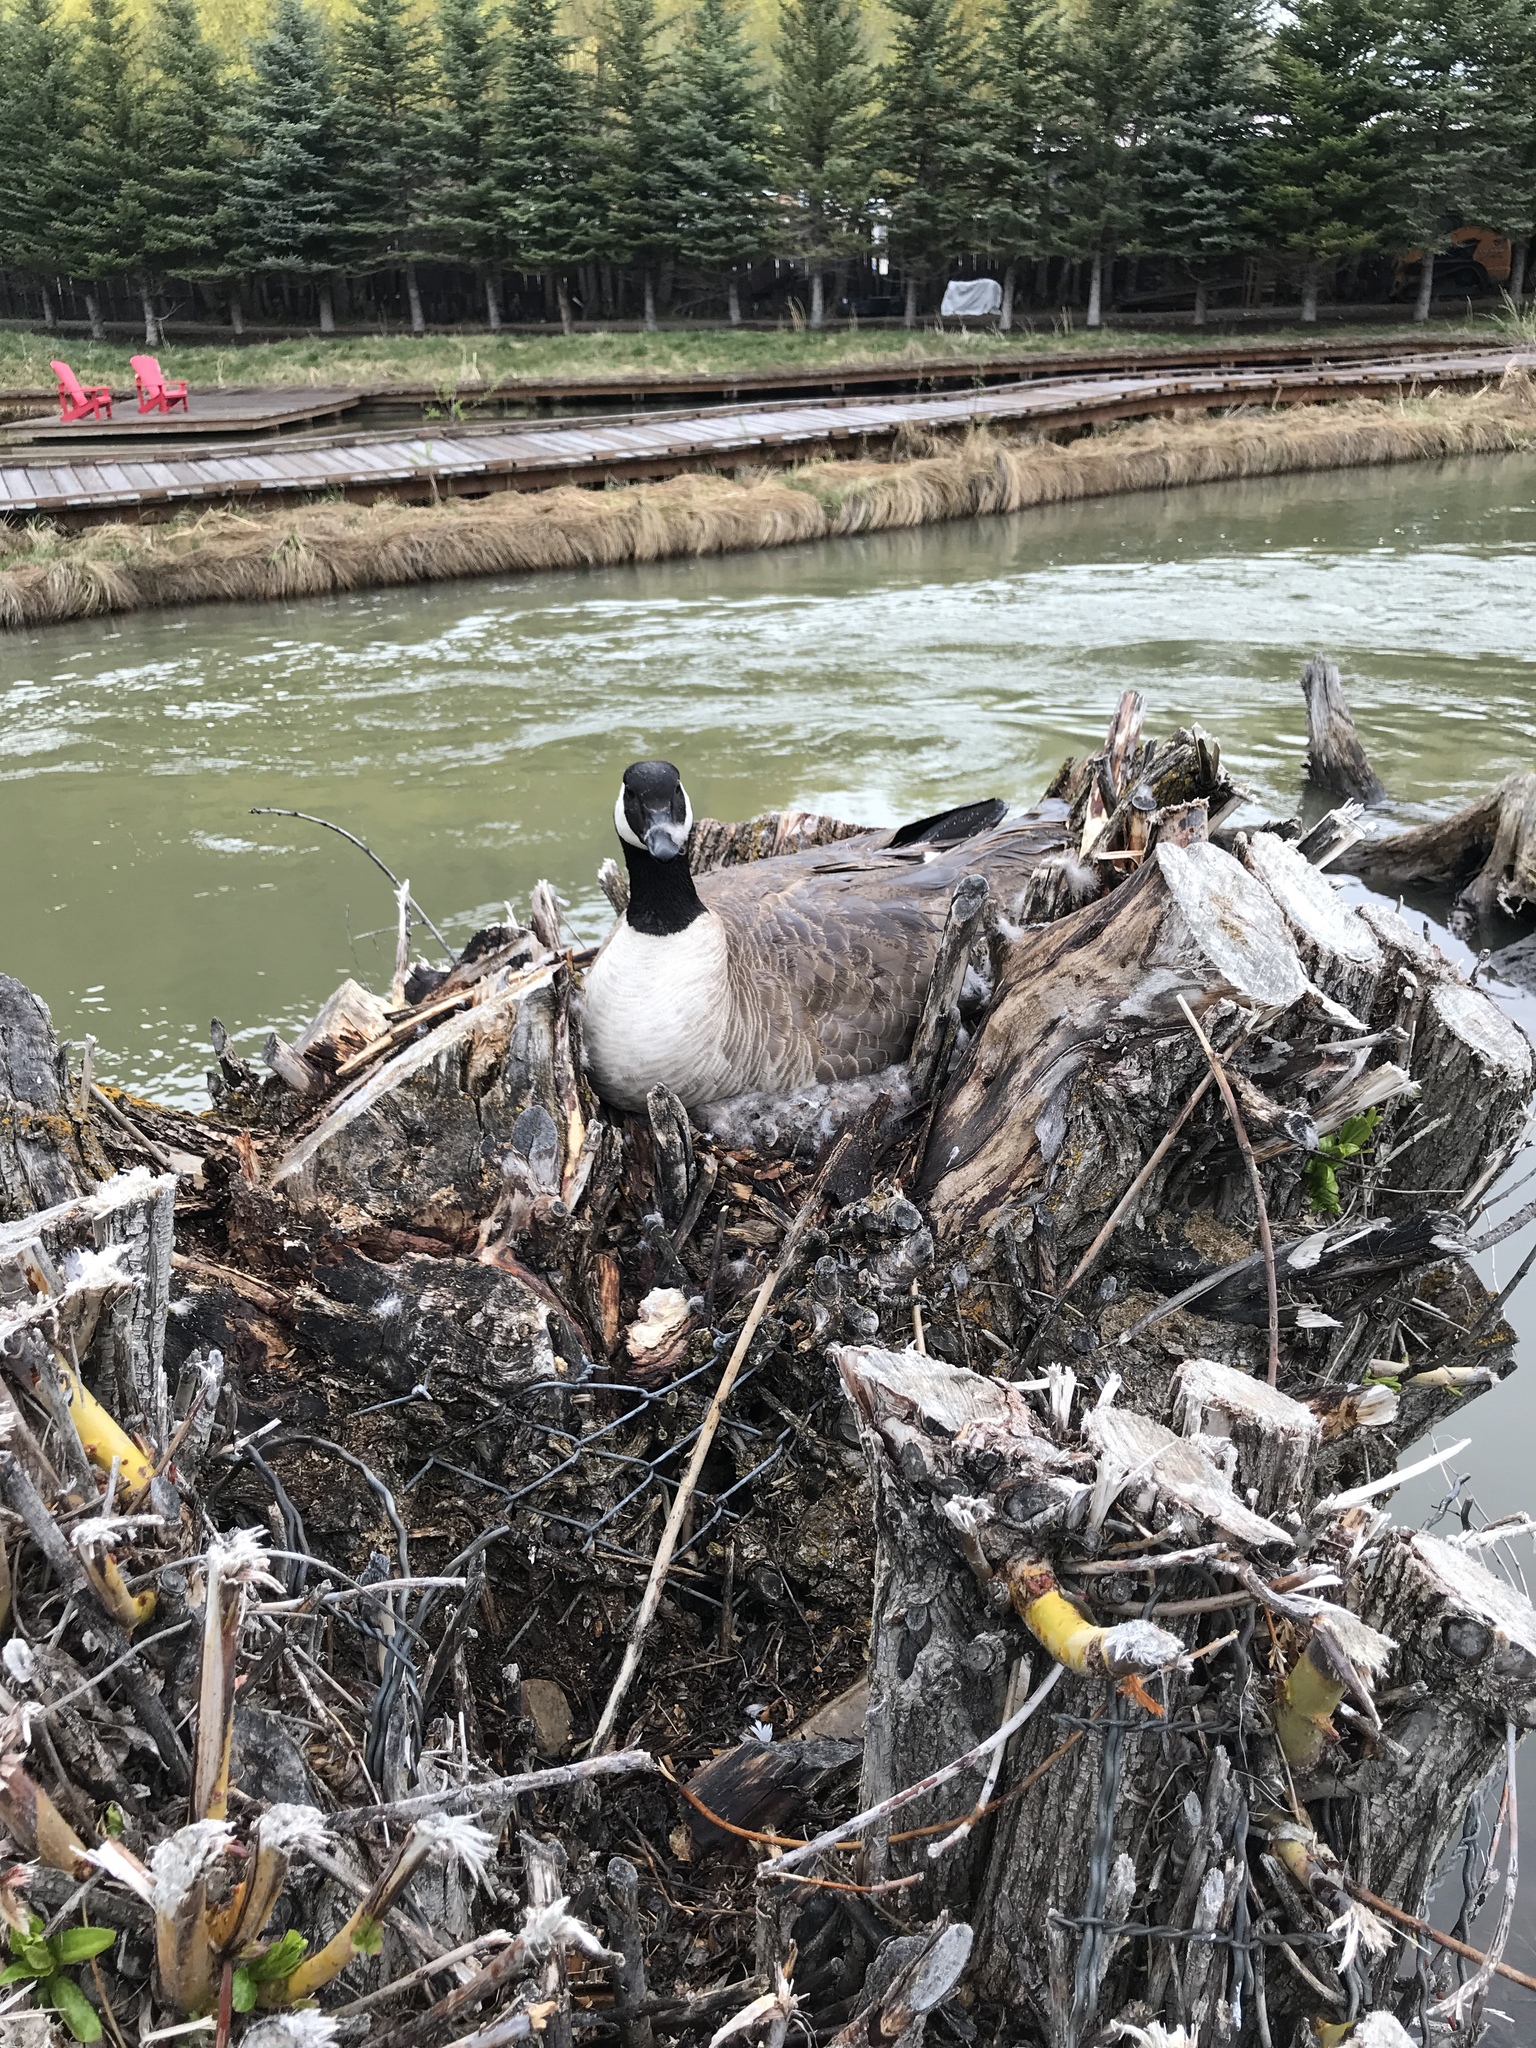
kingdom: Animalia
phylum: Chordata
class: Aves
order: Anseriformes
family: Anatidae
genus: Branta
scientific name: Branta canadensis
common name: Canada goose
